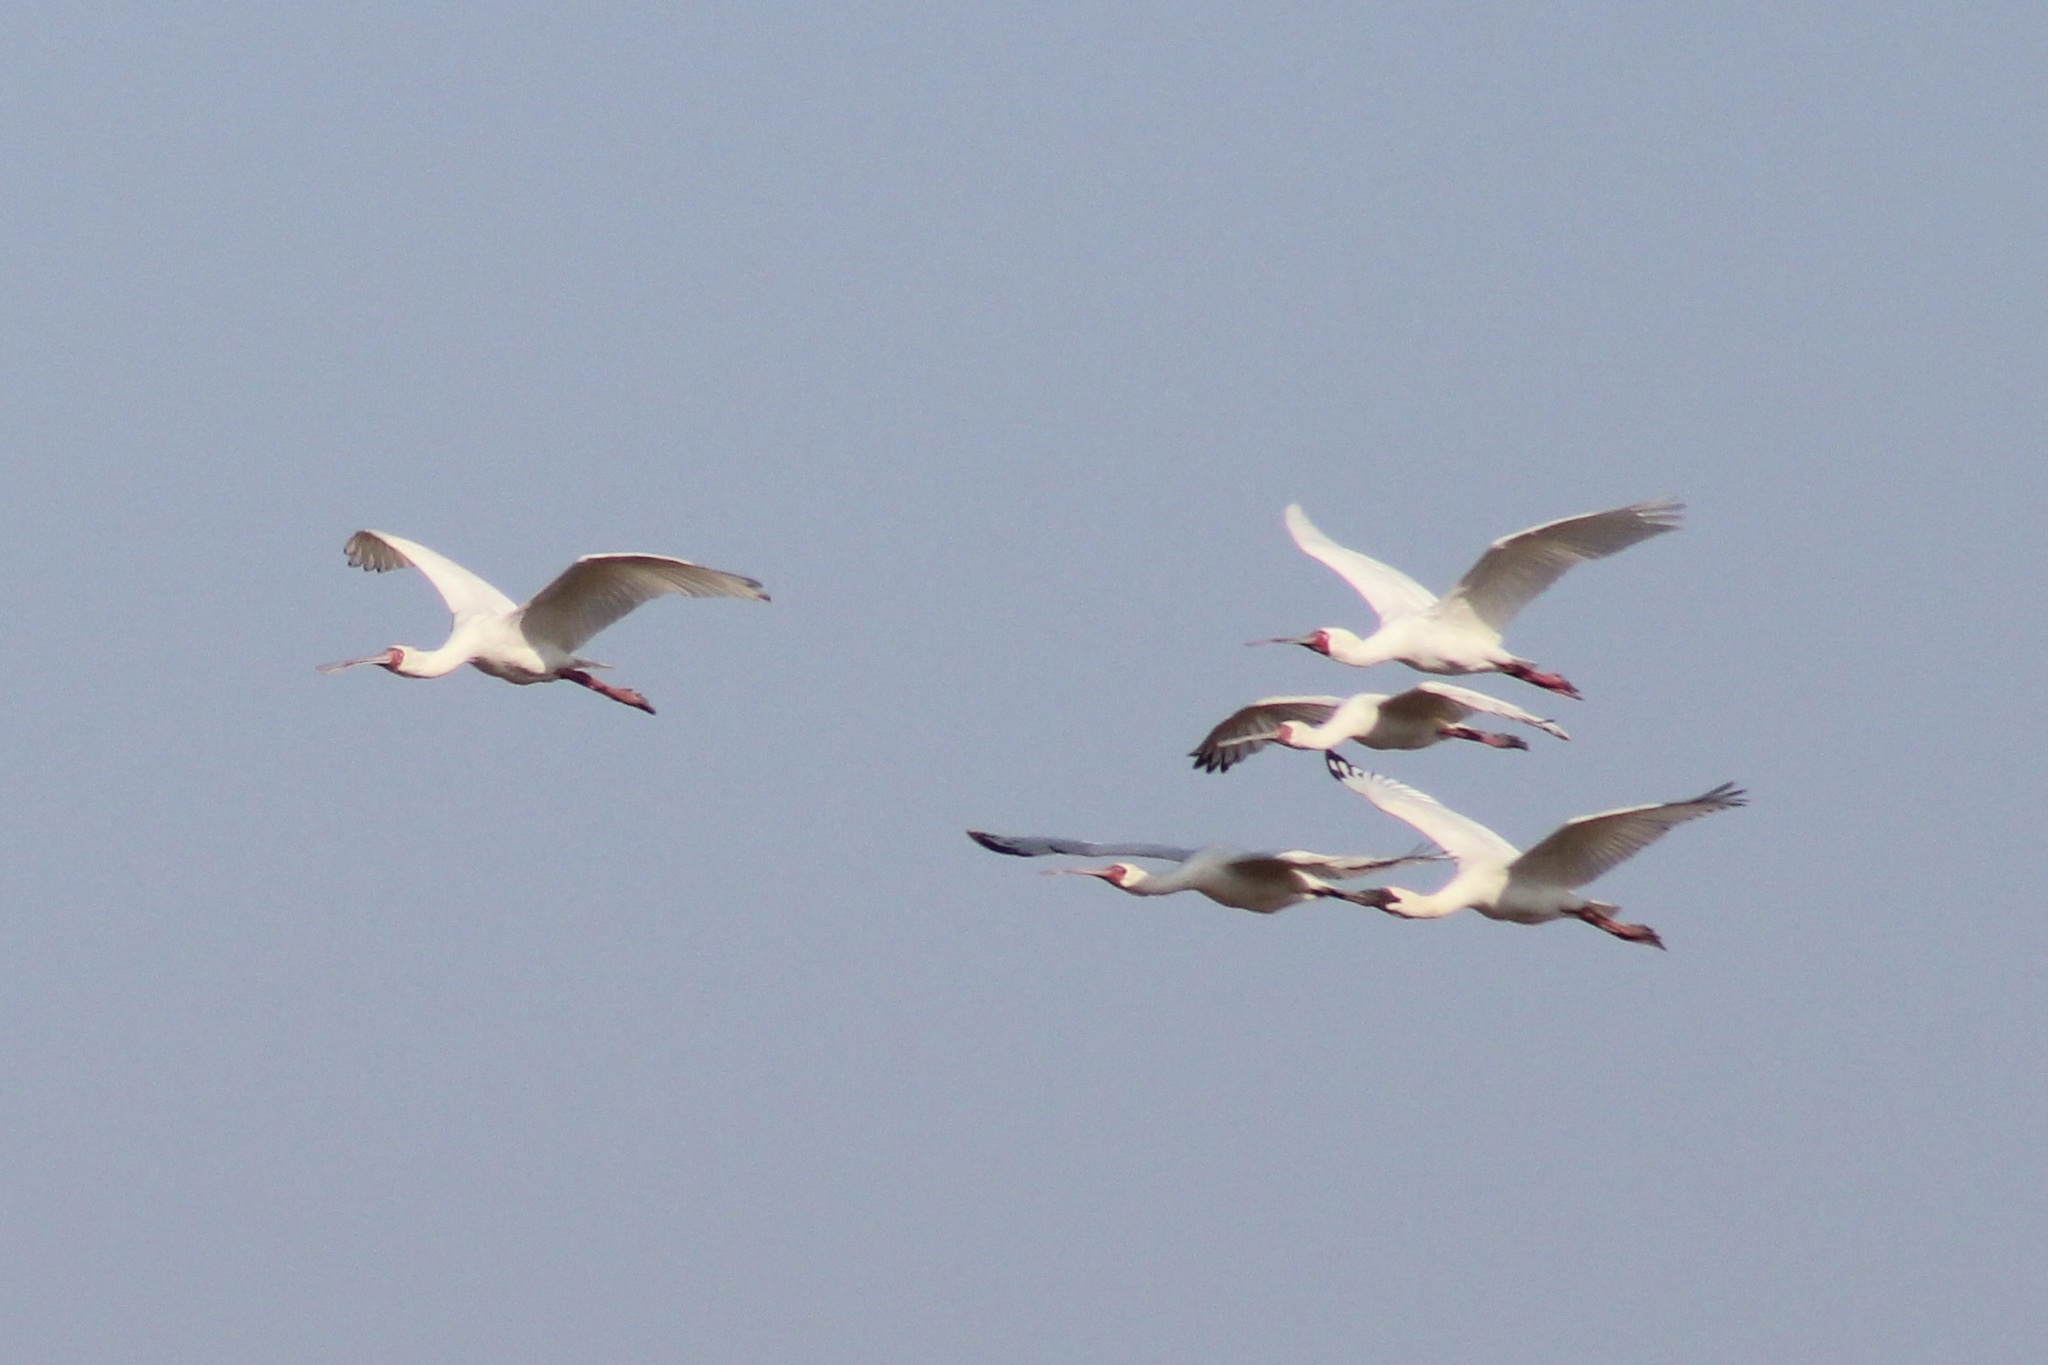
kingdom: Animalia
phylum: Chordata
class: Aves
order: Pelecaniformes
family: Threskiornithidae
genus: Platalea
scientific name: Platalea alba
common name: African spoonbill
